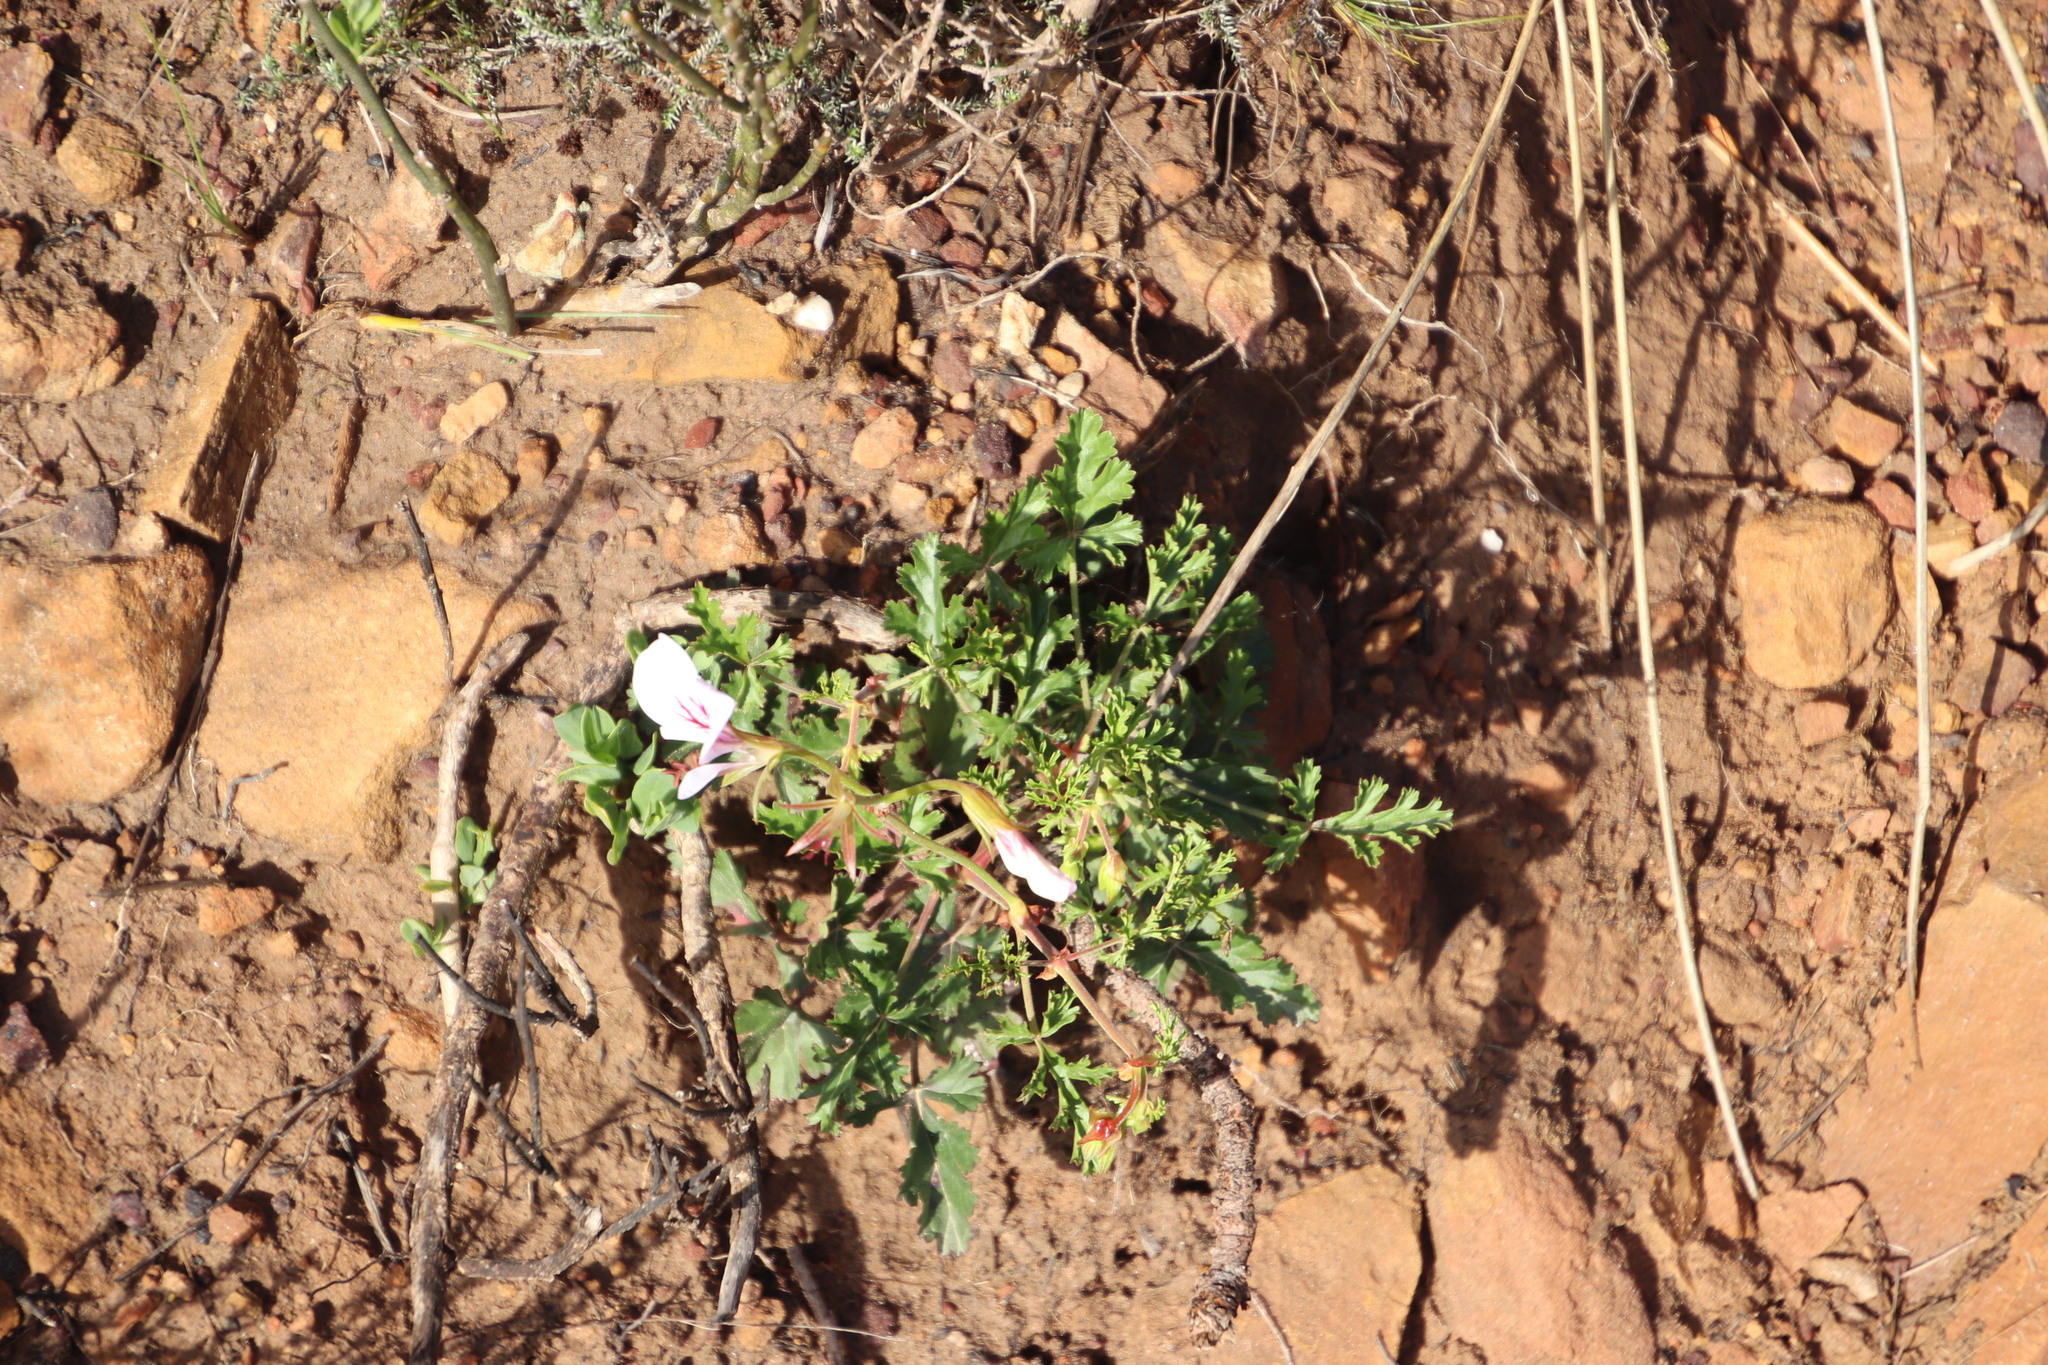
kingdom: Plantae
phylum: Tracheophyta
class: Magnoliopsida
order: Geraniales
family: Geraniaceae
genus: Pelargonium
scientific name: Pelargonium longicaule
